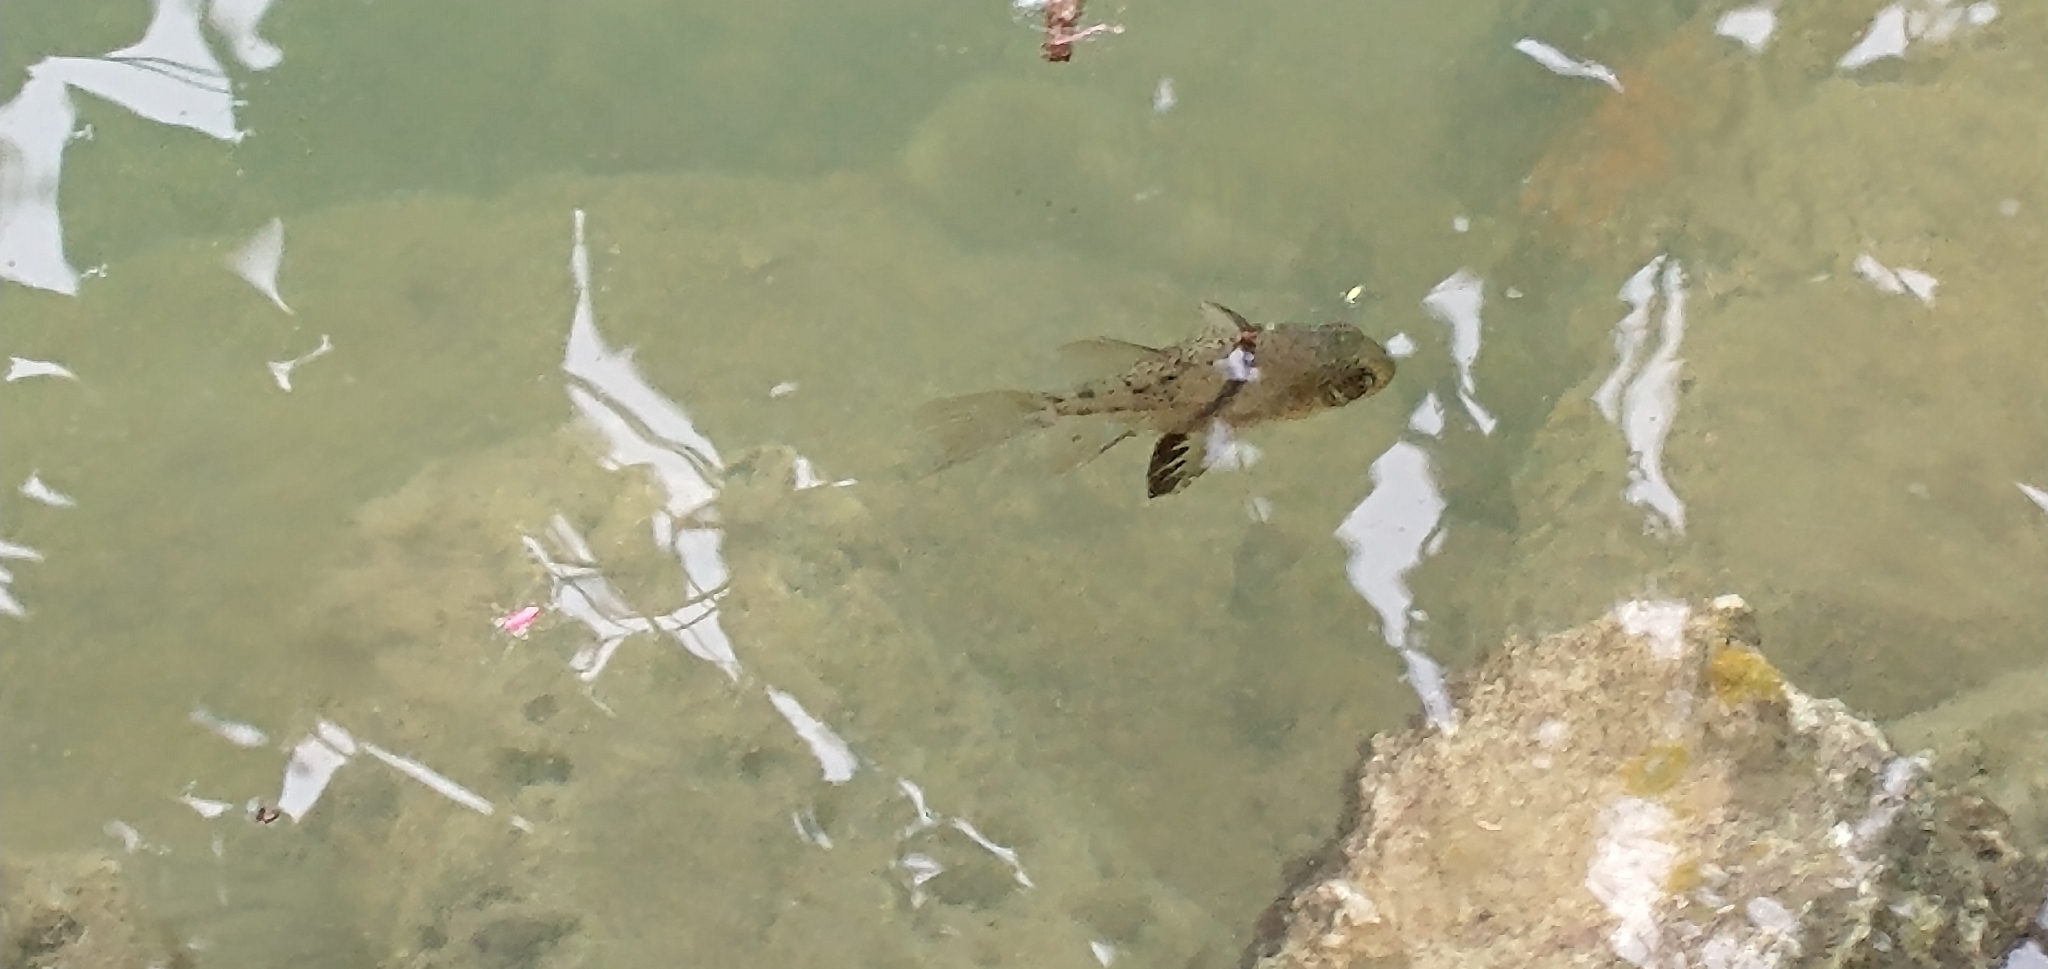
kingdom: Animalia
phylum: Chordata
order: Perciformes
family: Apogonidae
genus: Sphaeramia
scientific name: Sphaeramia orbicularis
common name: Polka-dot cardinalfish
